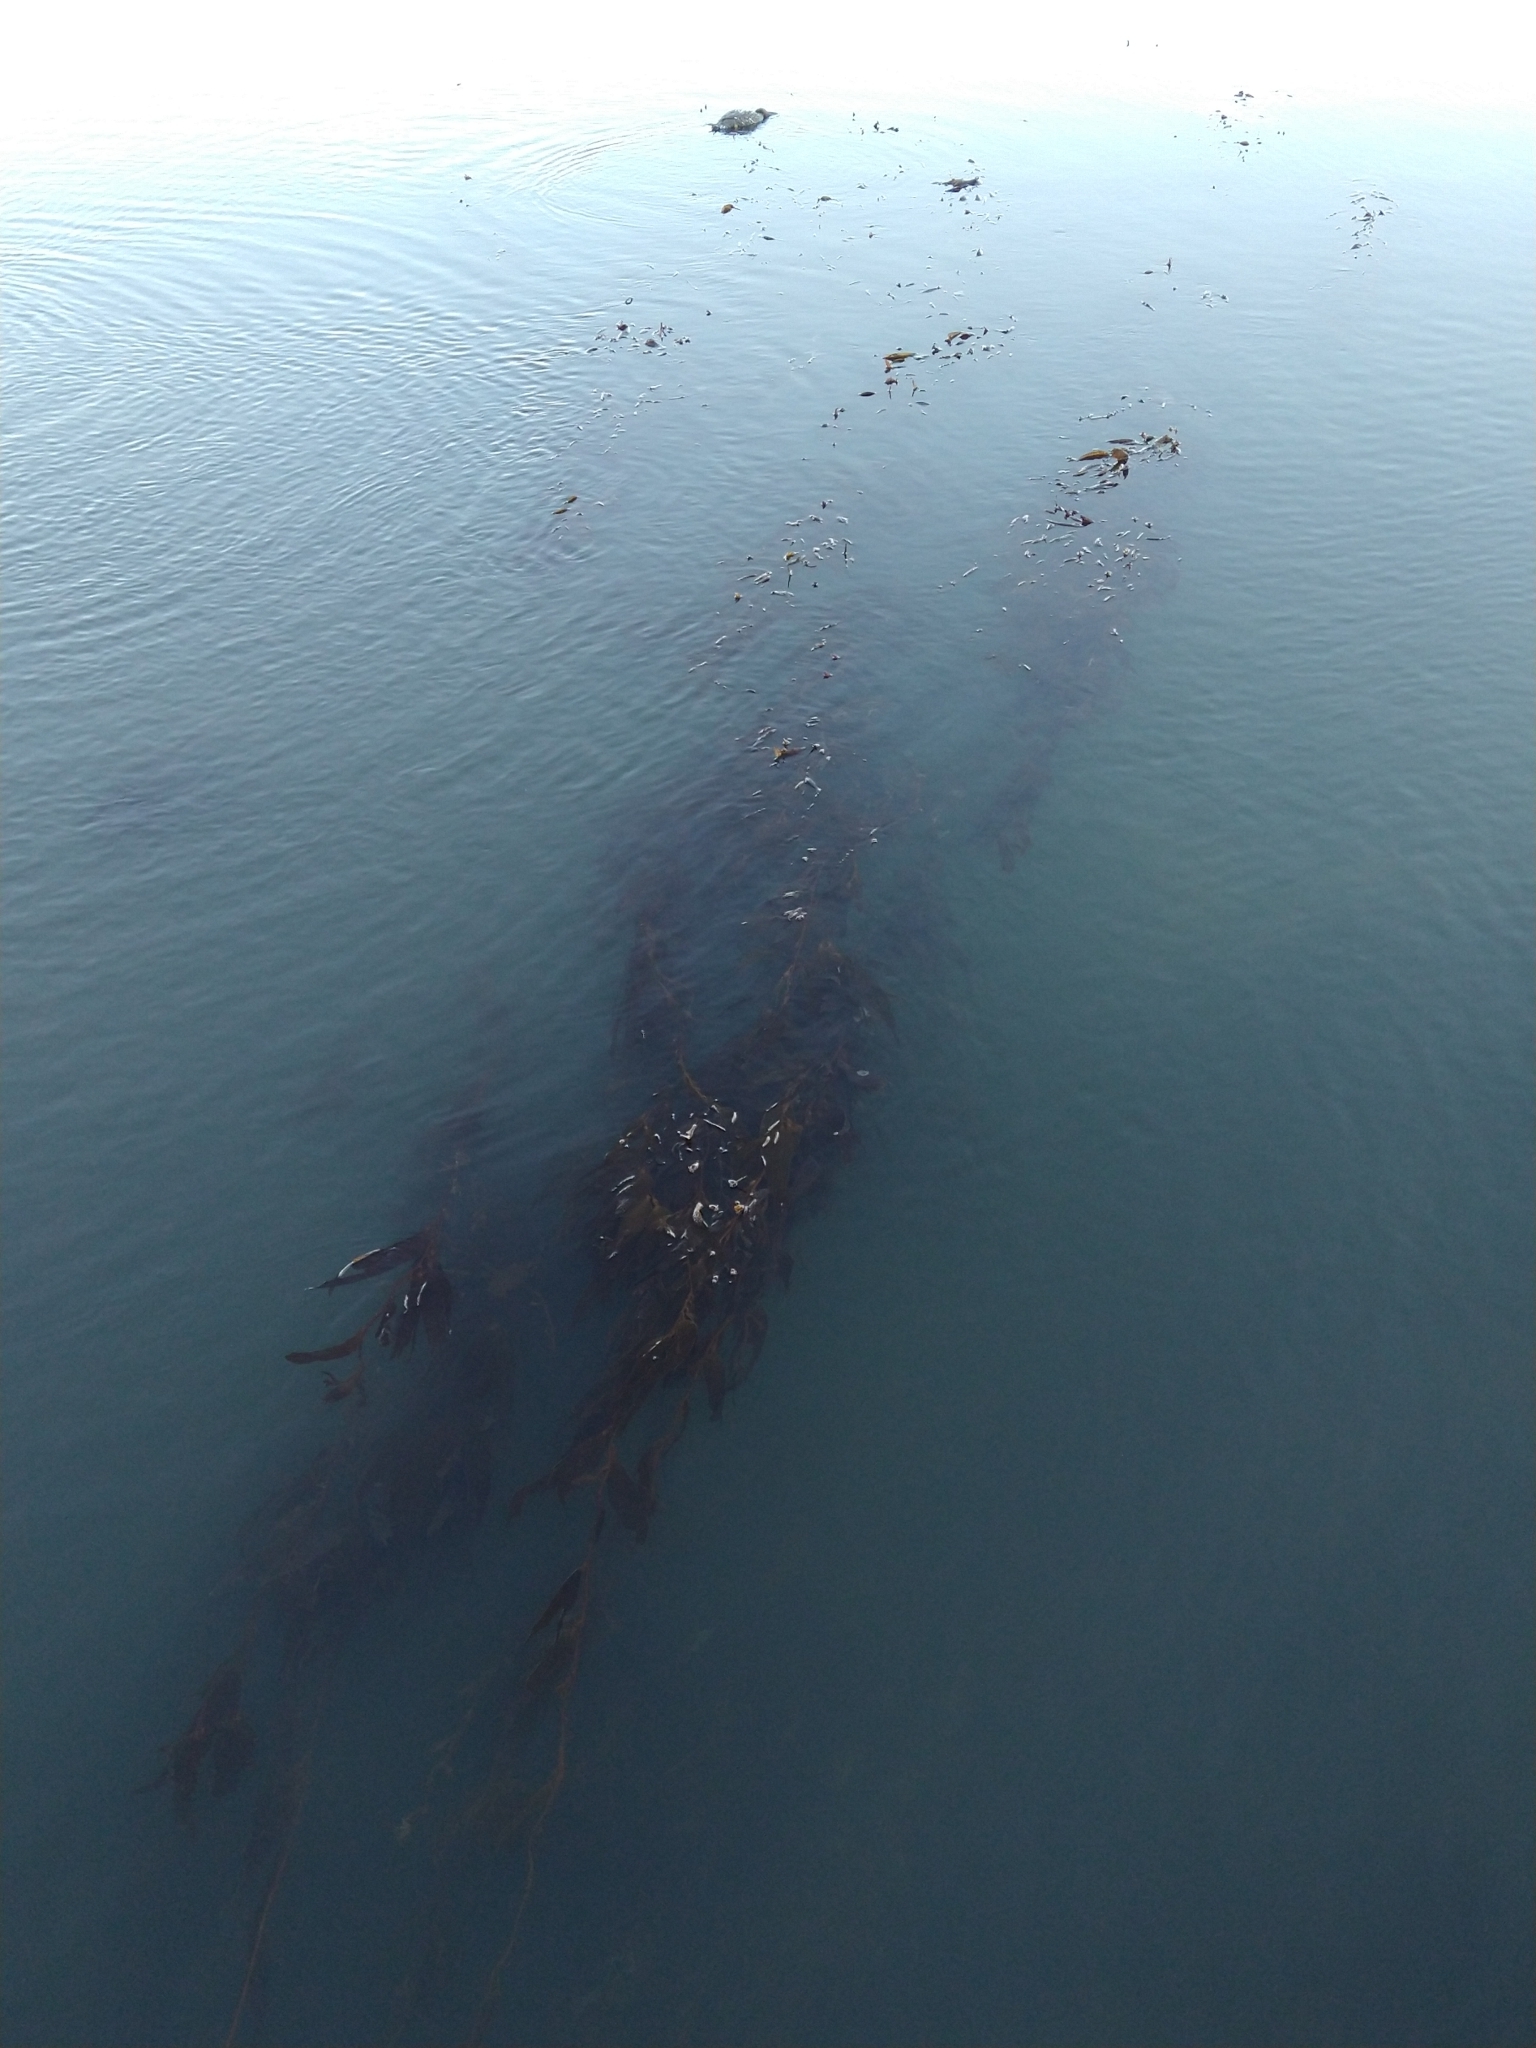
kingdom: Chromista
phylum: Ochrophyta
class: Phaeophyceae
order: Laminariales
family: Laminariaceae
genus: Macrocystis
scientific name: Macrocystis pyrifera
